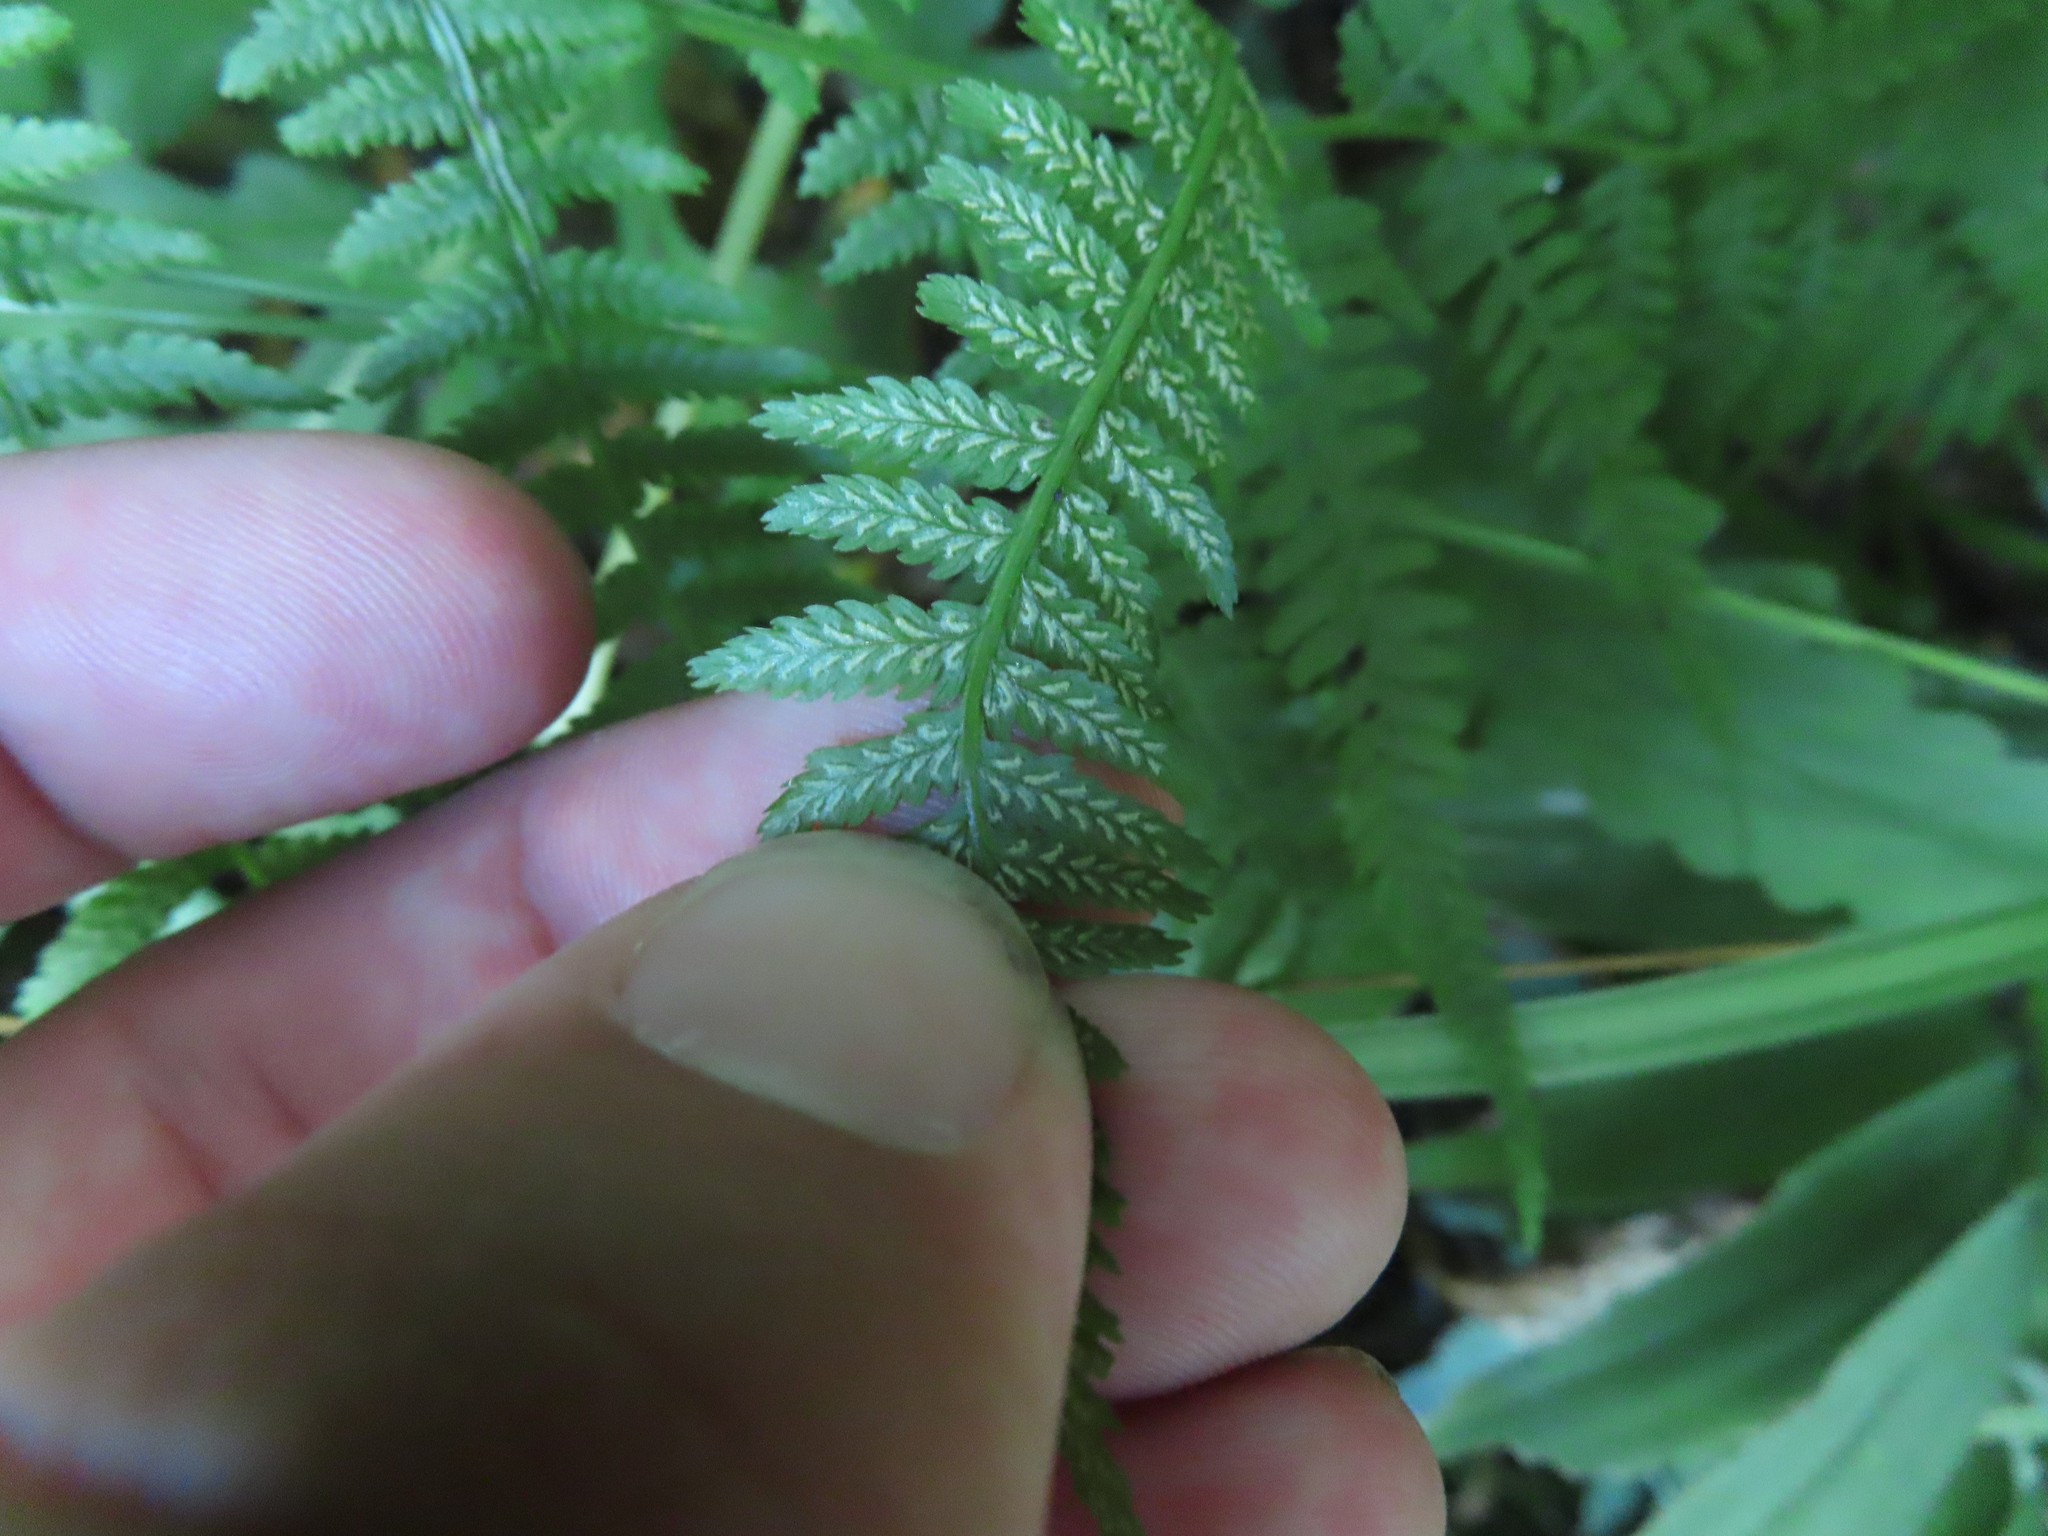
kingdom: Plantae
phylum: Tracheophyta
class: Polypodiopsida
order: Polypodiales
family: Athyriaceae
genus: Athyrium
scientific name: Athyrium angustum
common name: Northern lady fern
